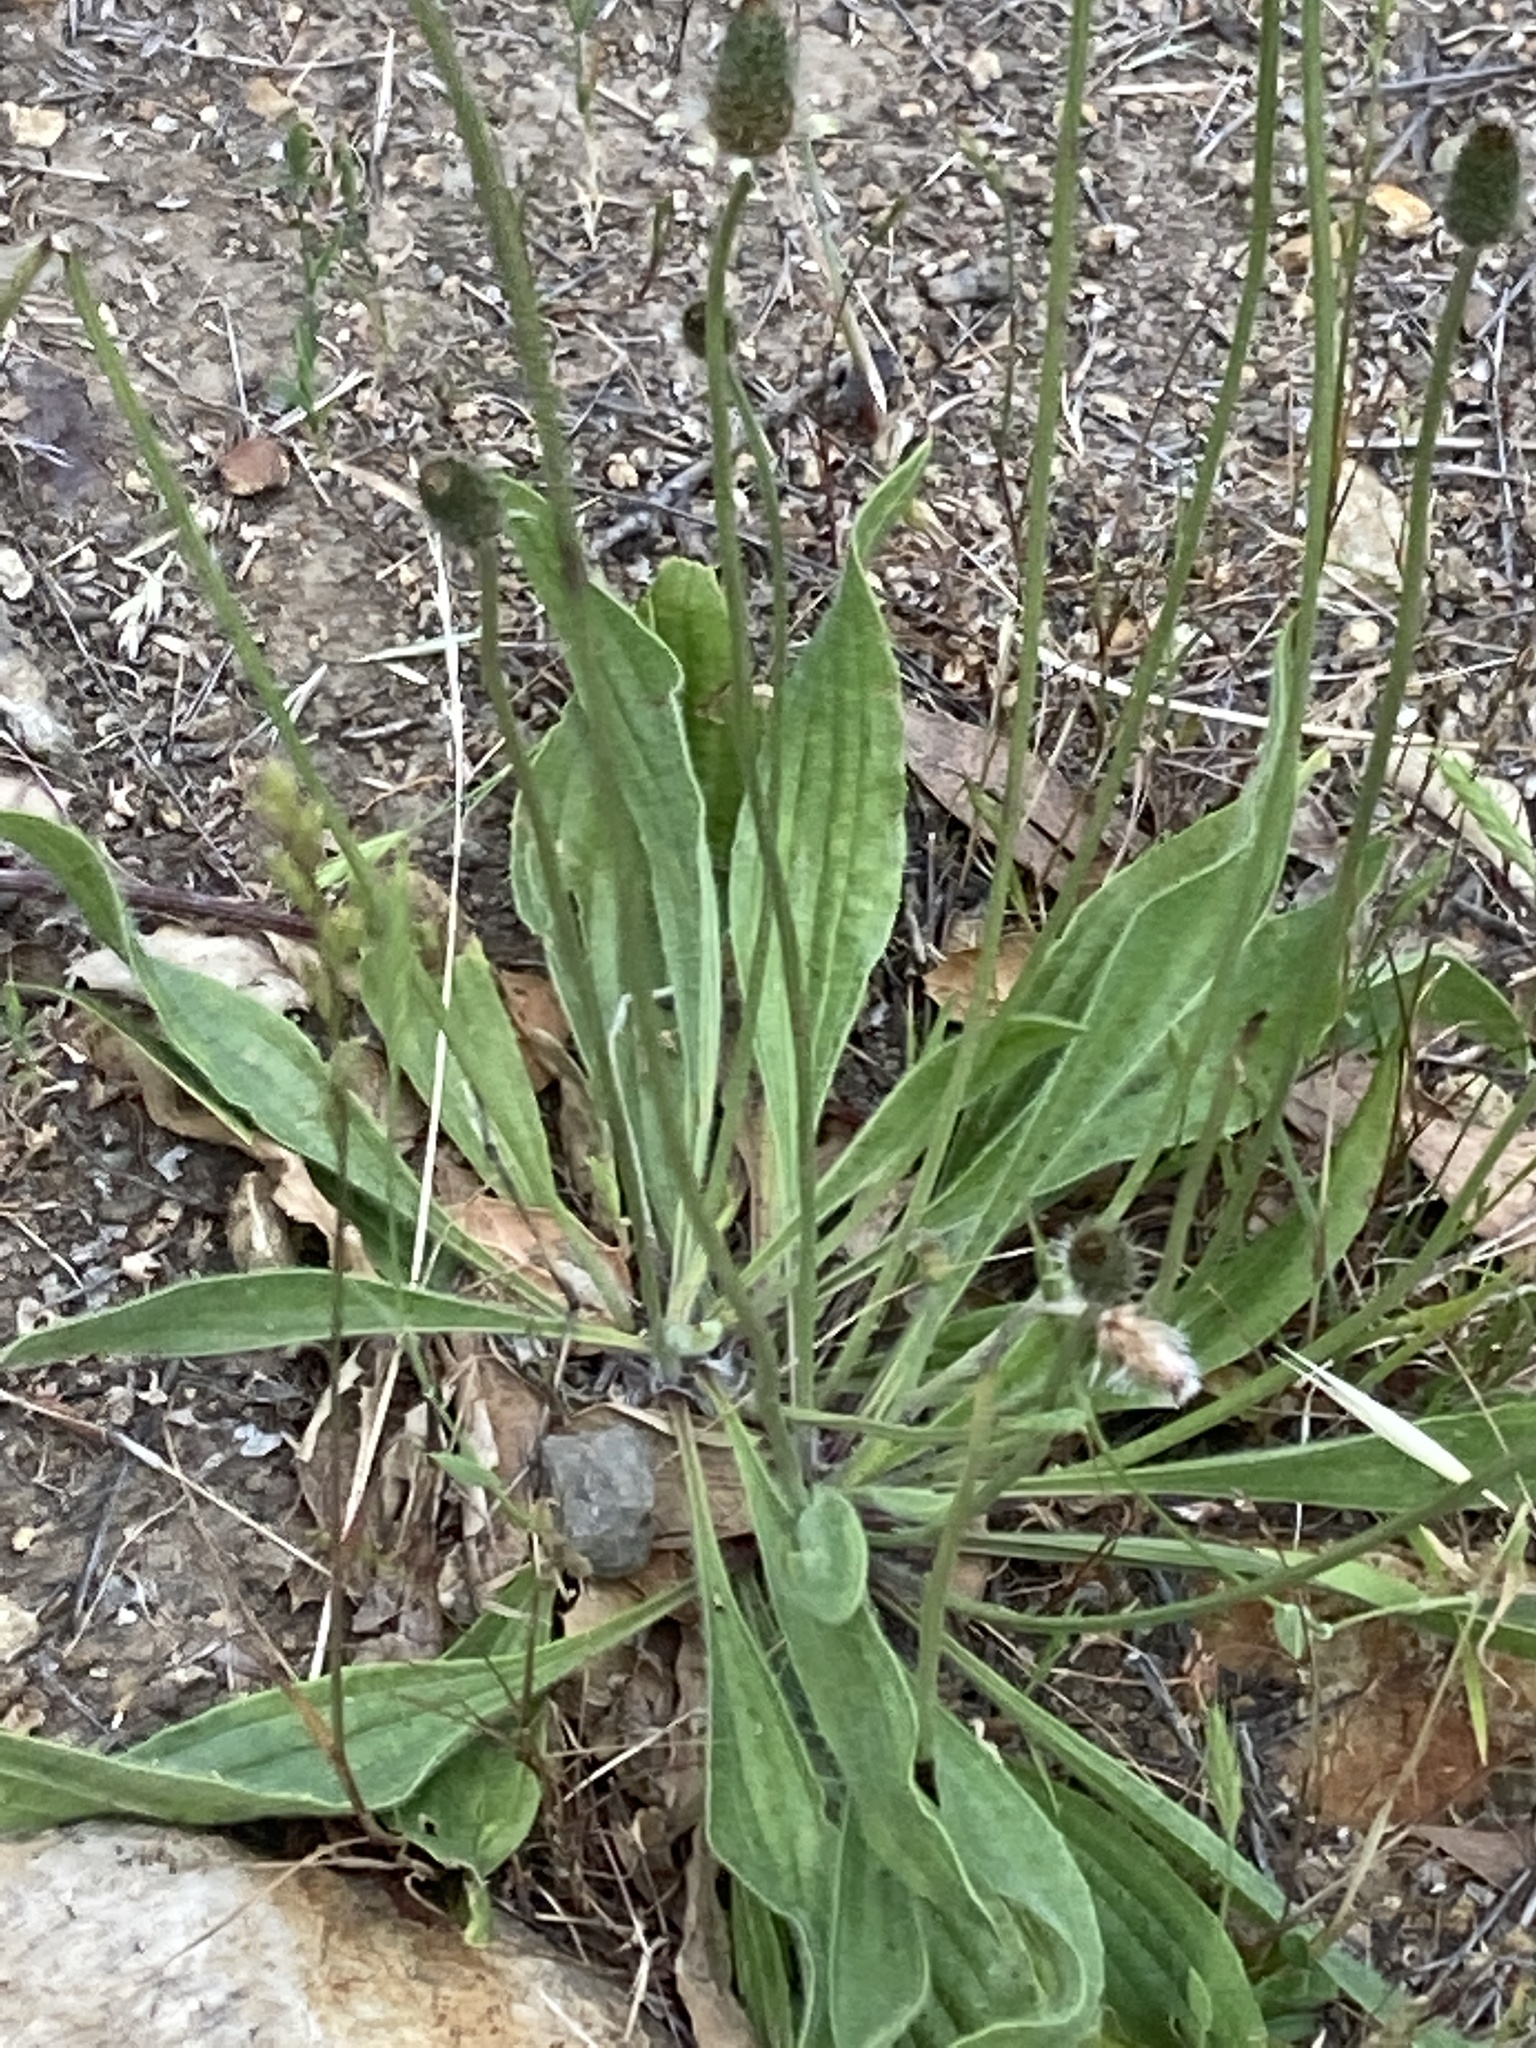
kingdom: Plantae
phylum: Tracheophyta
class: Magnoliopsida
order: Lamiales
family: Plantaginaceae
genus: Plantago
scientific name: Plantago lanceolata
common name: Ribwort plantain
